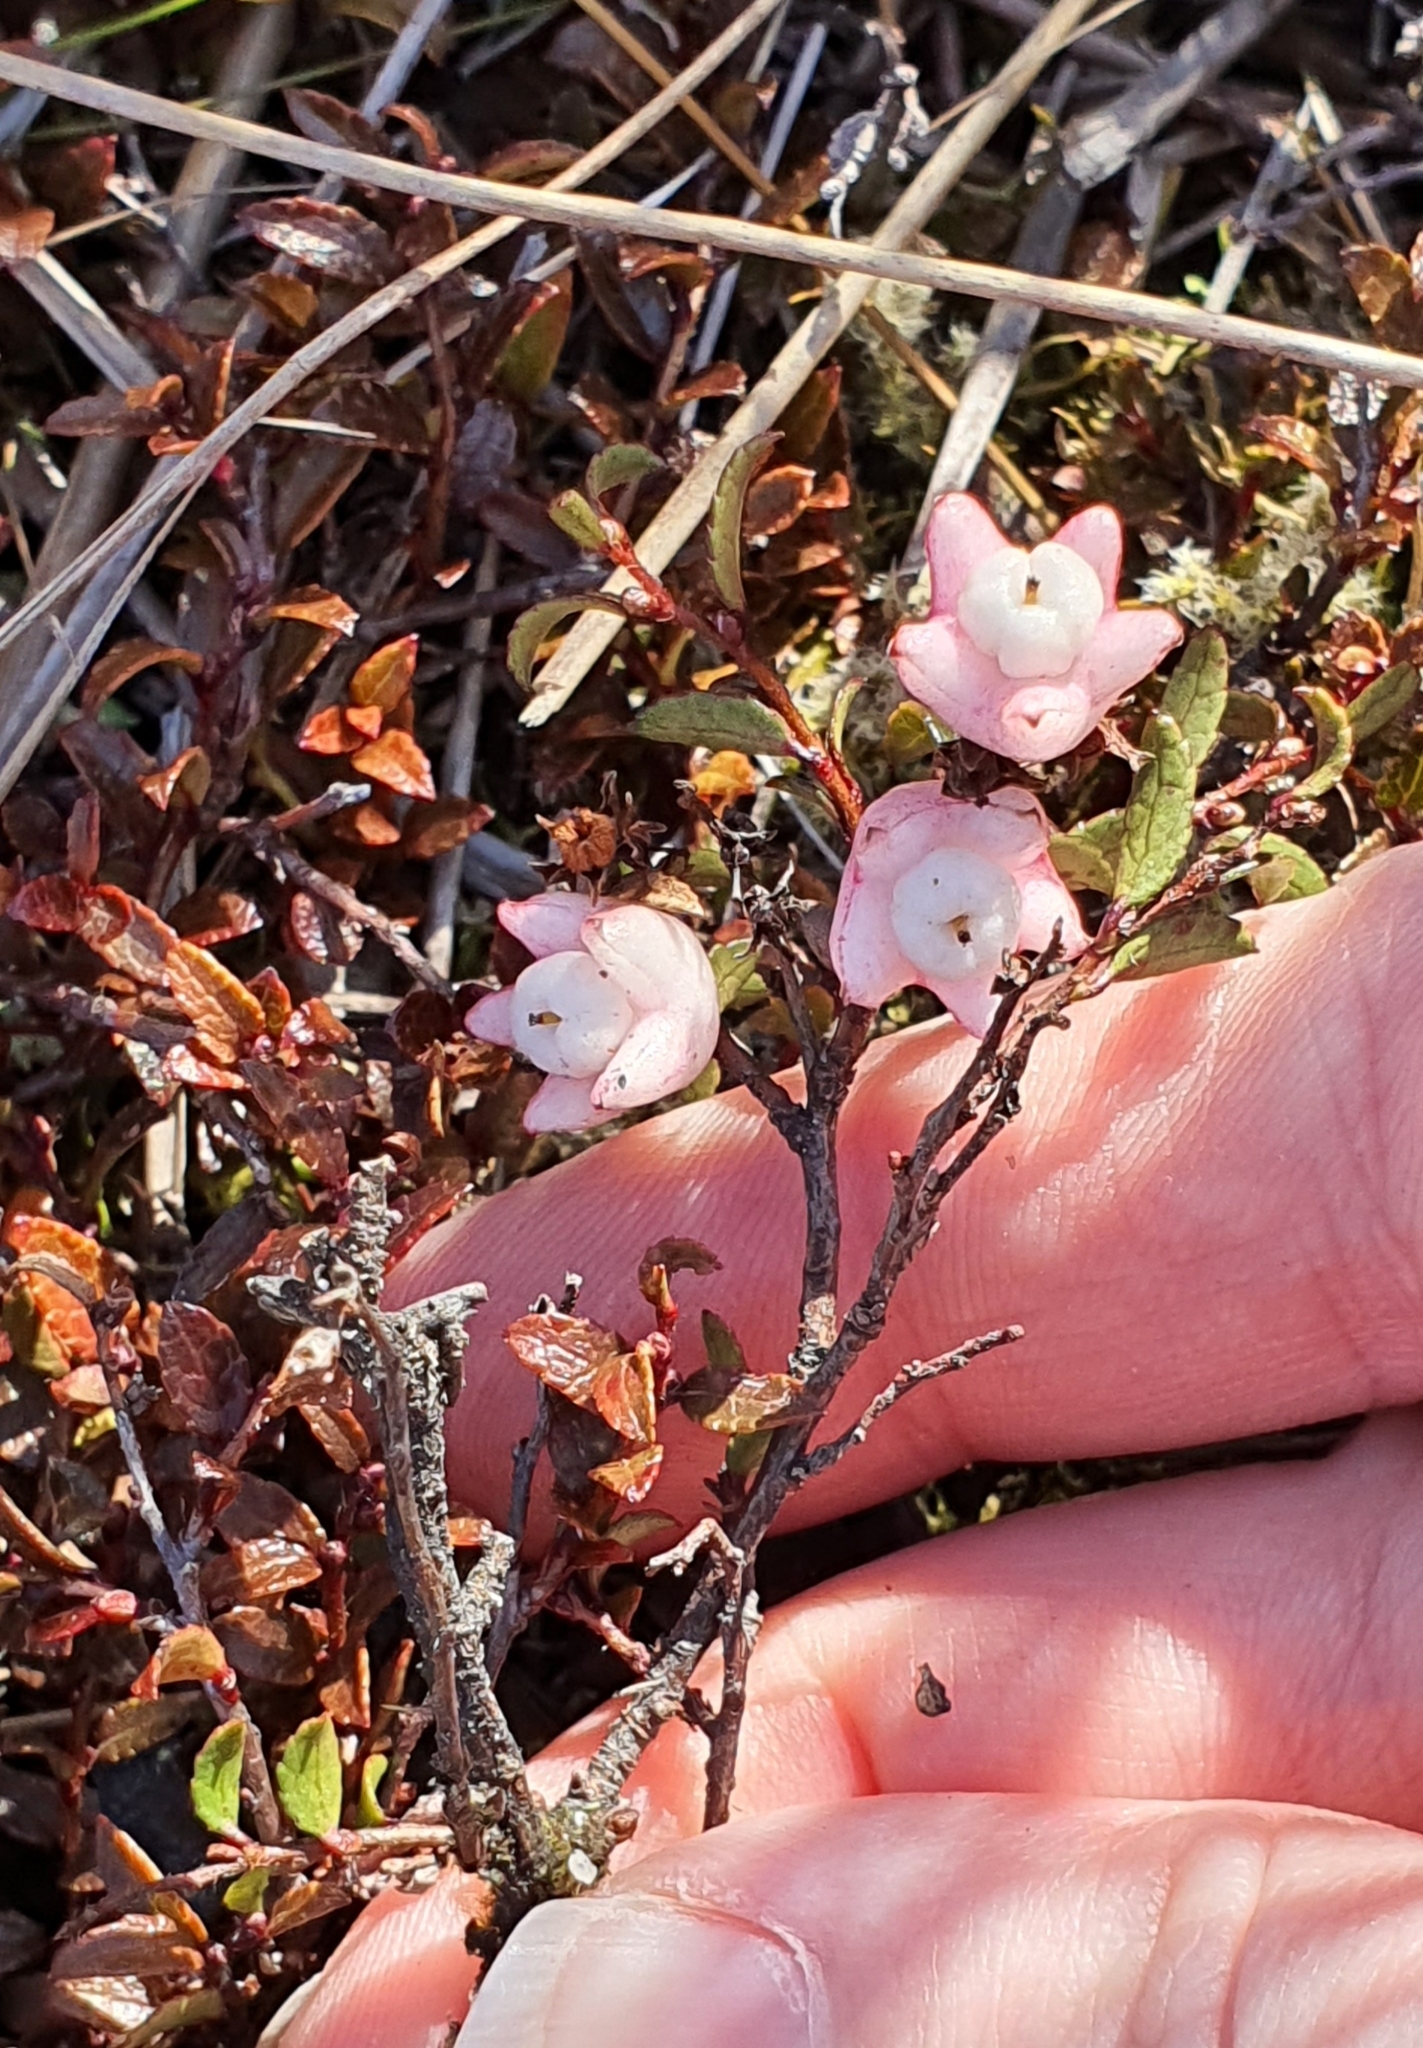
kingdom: Plantae
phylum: Tracheophyta
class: Magnoliopsida
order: Ericales
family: Ericaceae
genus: Gaultheria
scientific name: Gaultheria
